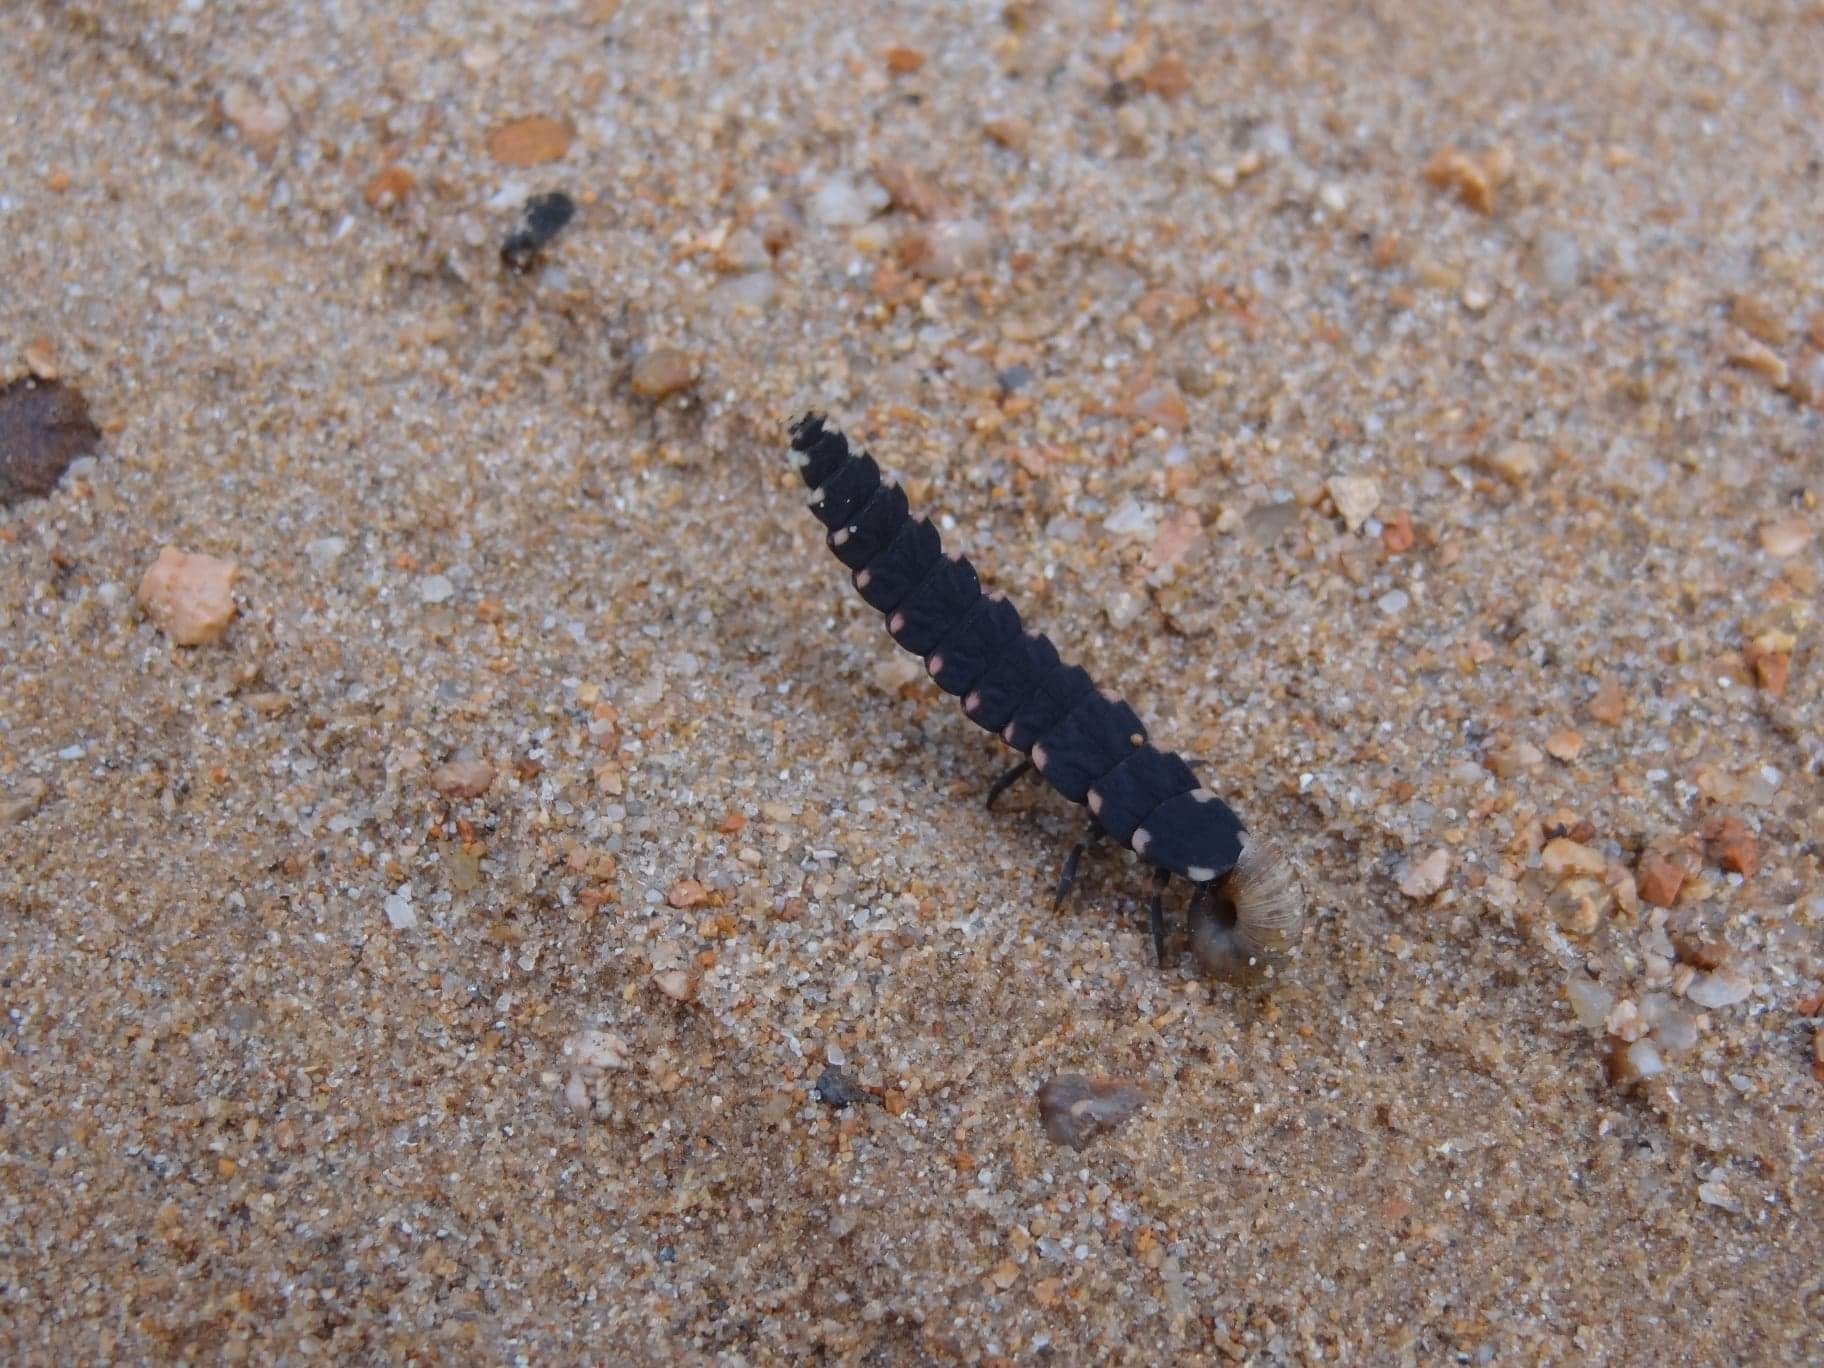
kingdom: Animalia
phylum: Arthropoda
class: Insecta
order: Coleoptera
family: Lampyridae
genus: Lampyris
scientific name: Lampyris lareynii
